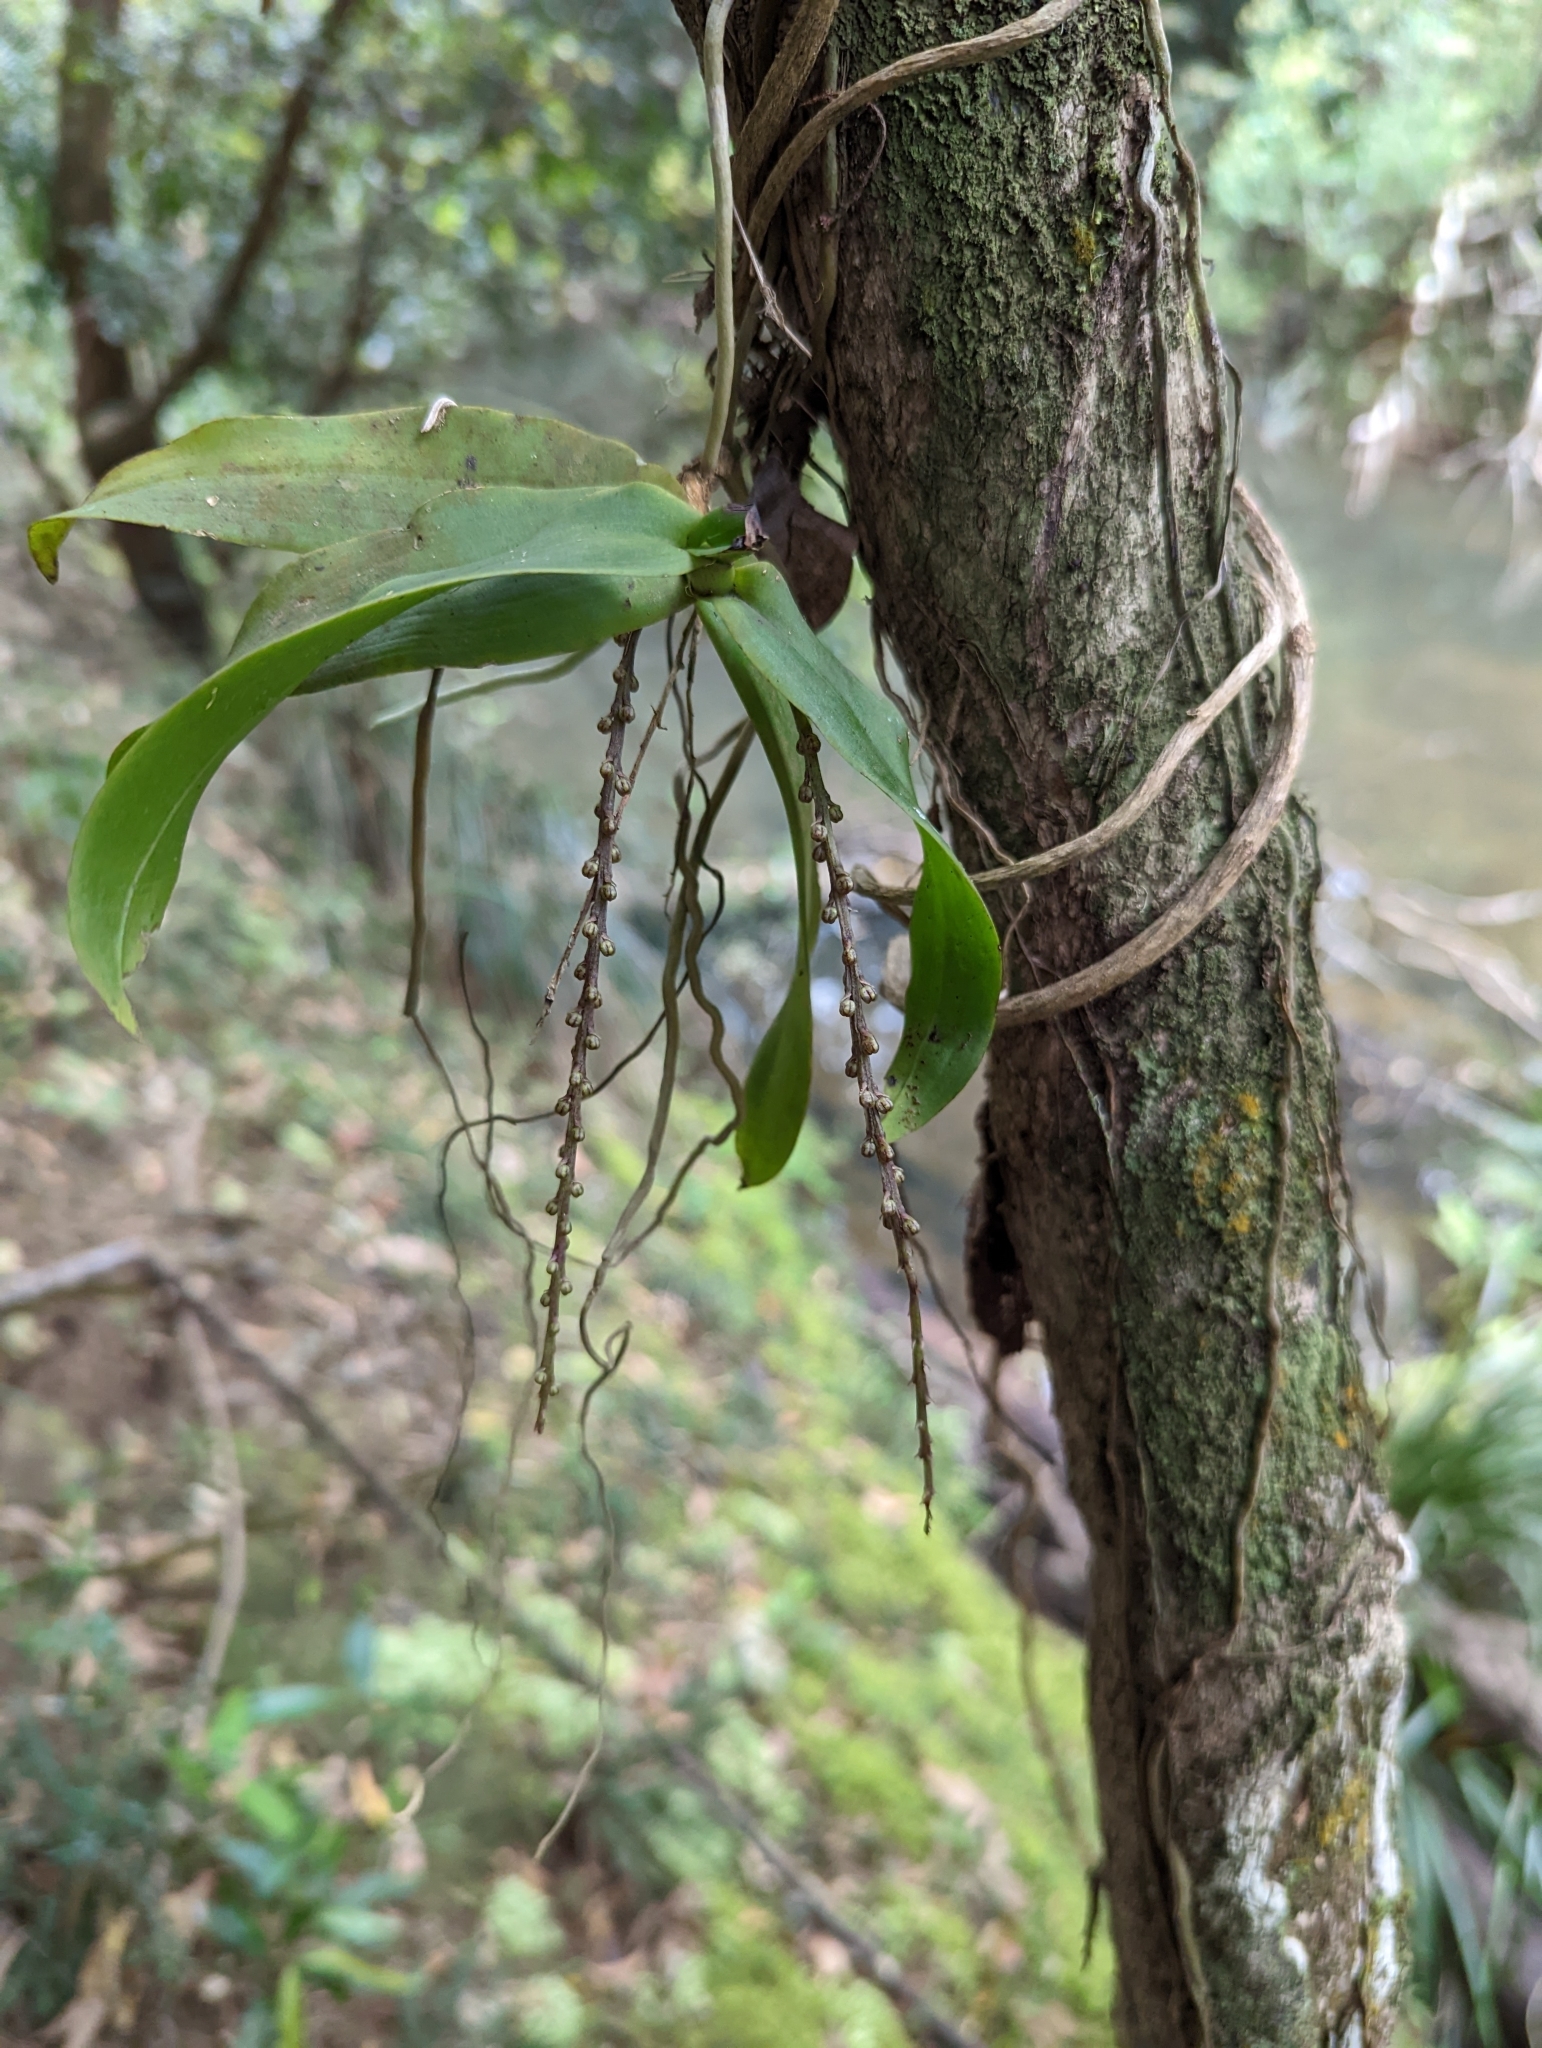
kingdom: Plantae
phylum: Tracheophyta
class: Liliopsida
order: Asparagales
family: Orchidaceae
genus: Peristeranthus
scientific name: Peristeranthus hillii
